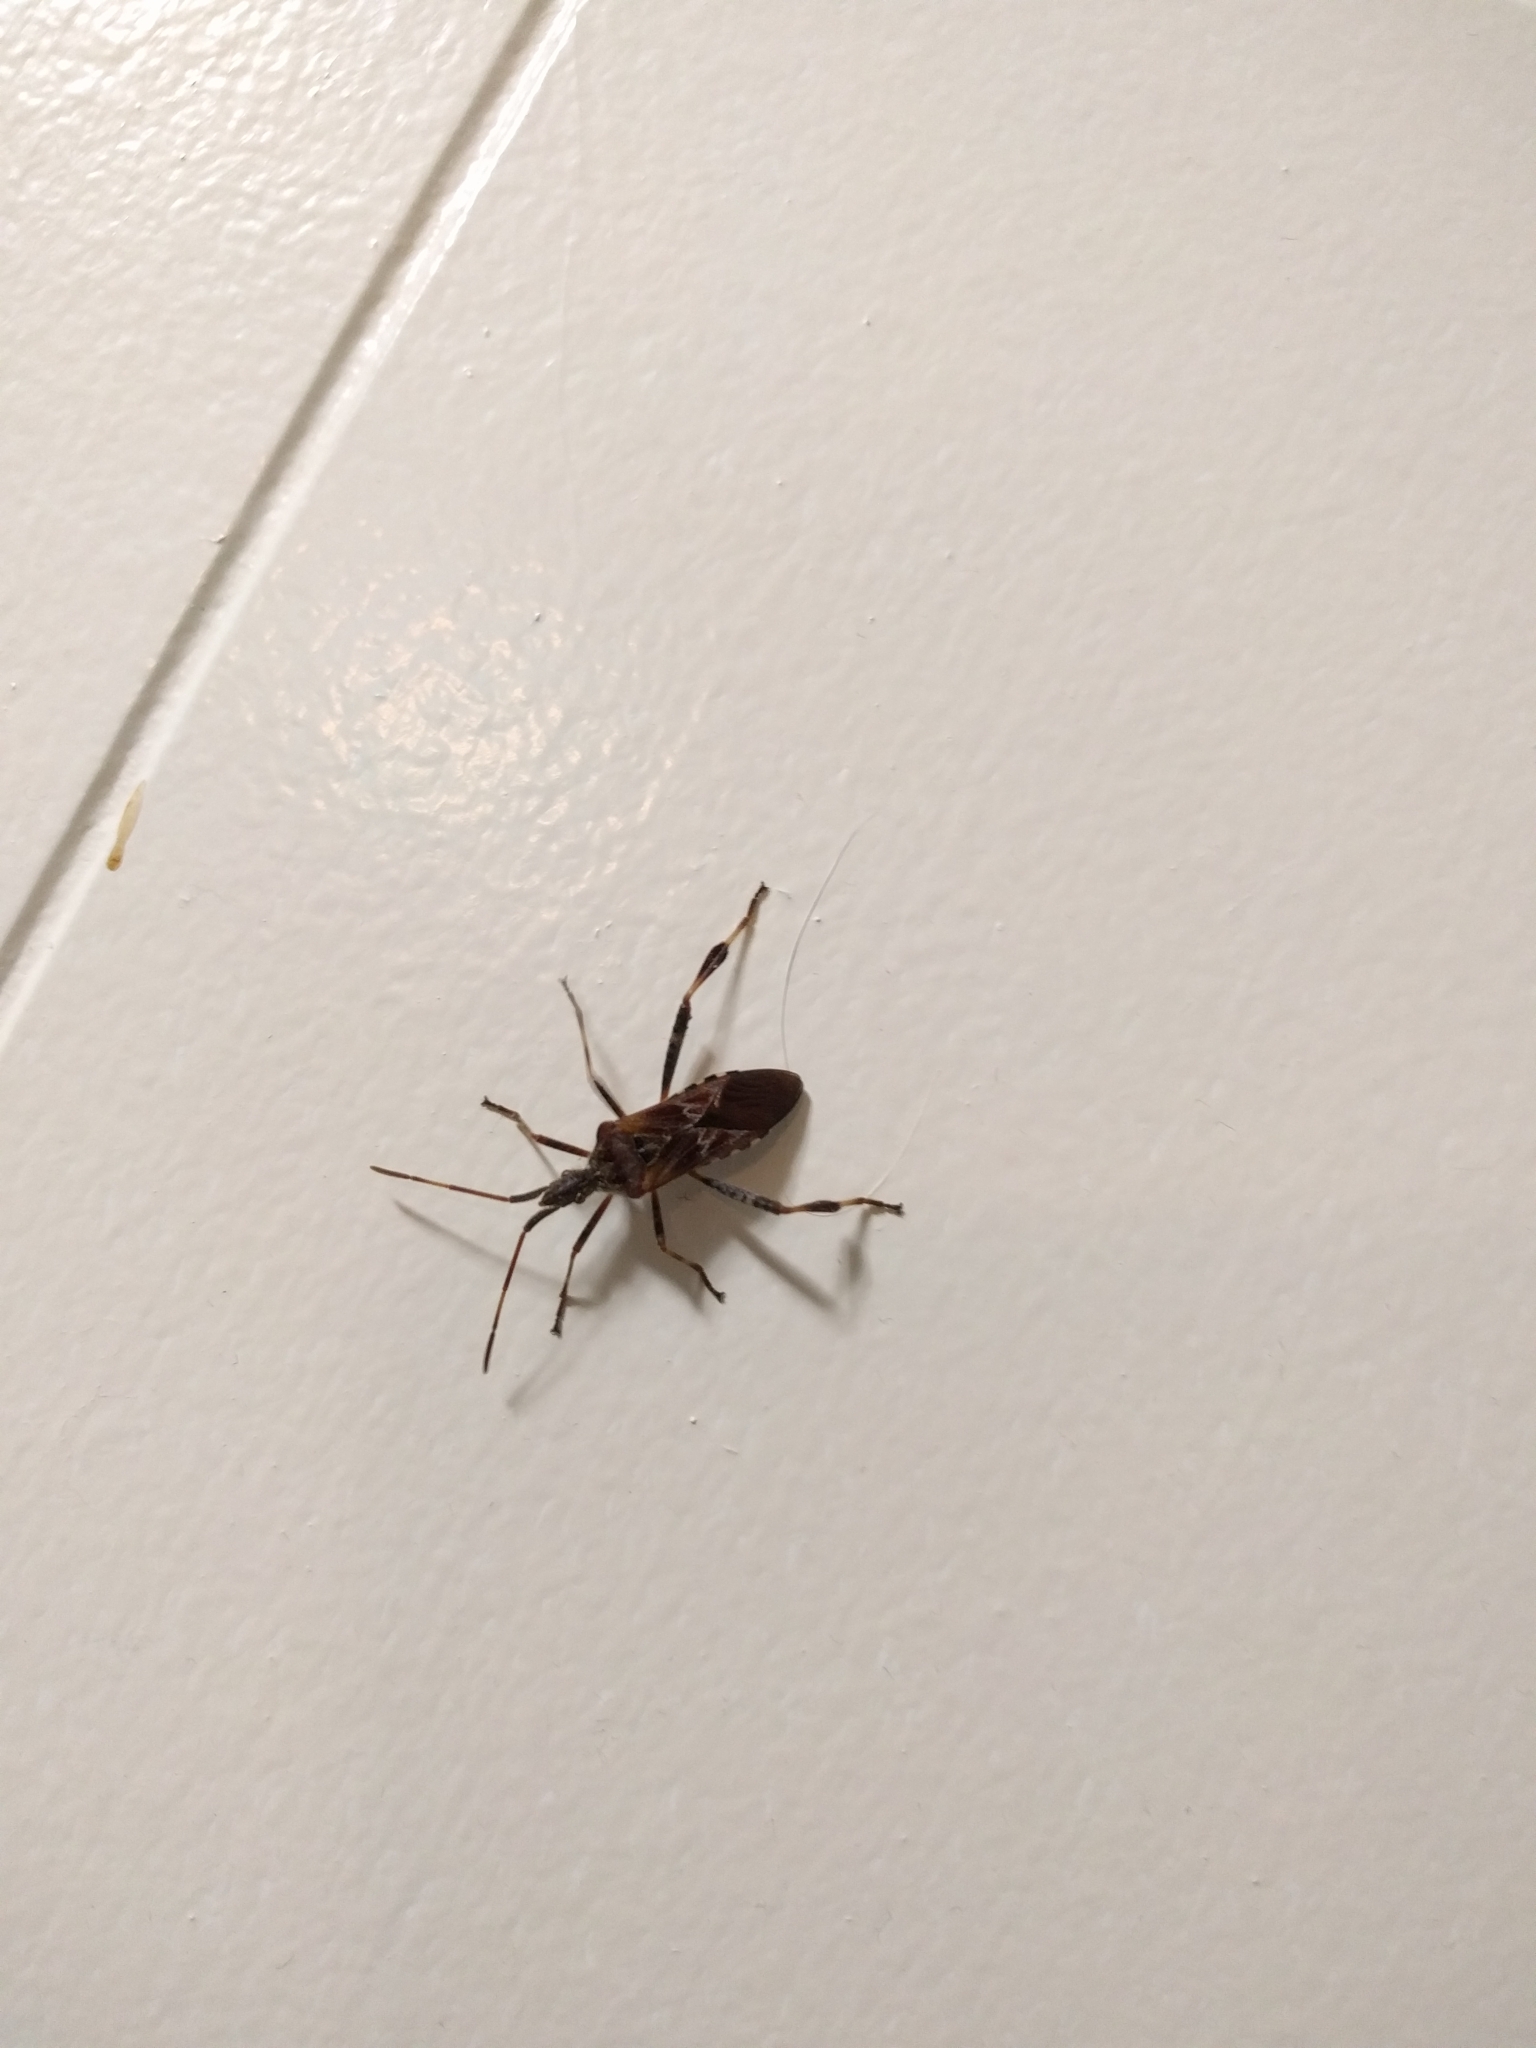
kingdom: Animalia
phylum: Arthropoda
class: Insecta
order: Hemiptera
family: Coreidae
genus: Leptoglossus
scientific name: Leptoglossus occidentalis
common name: Western conifer-seed bug
